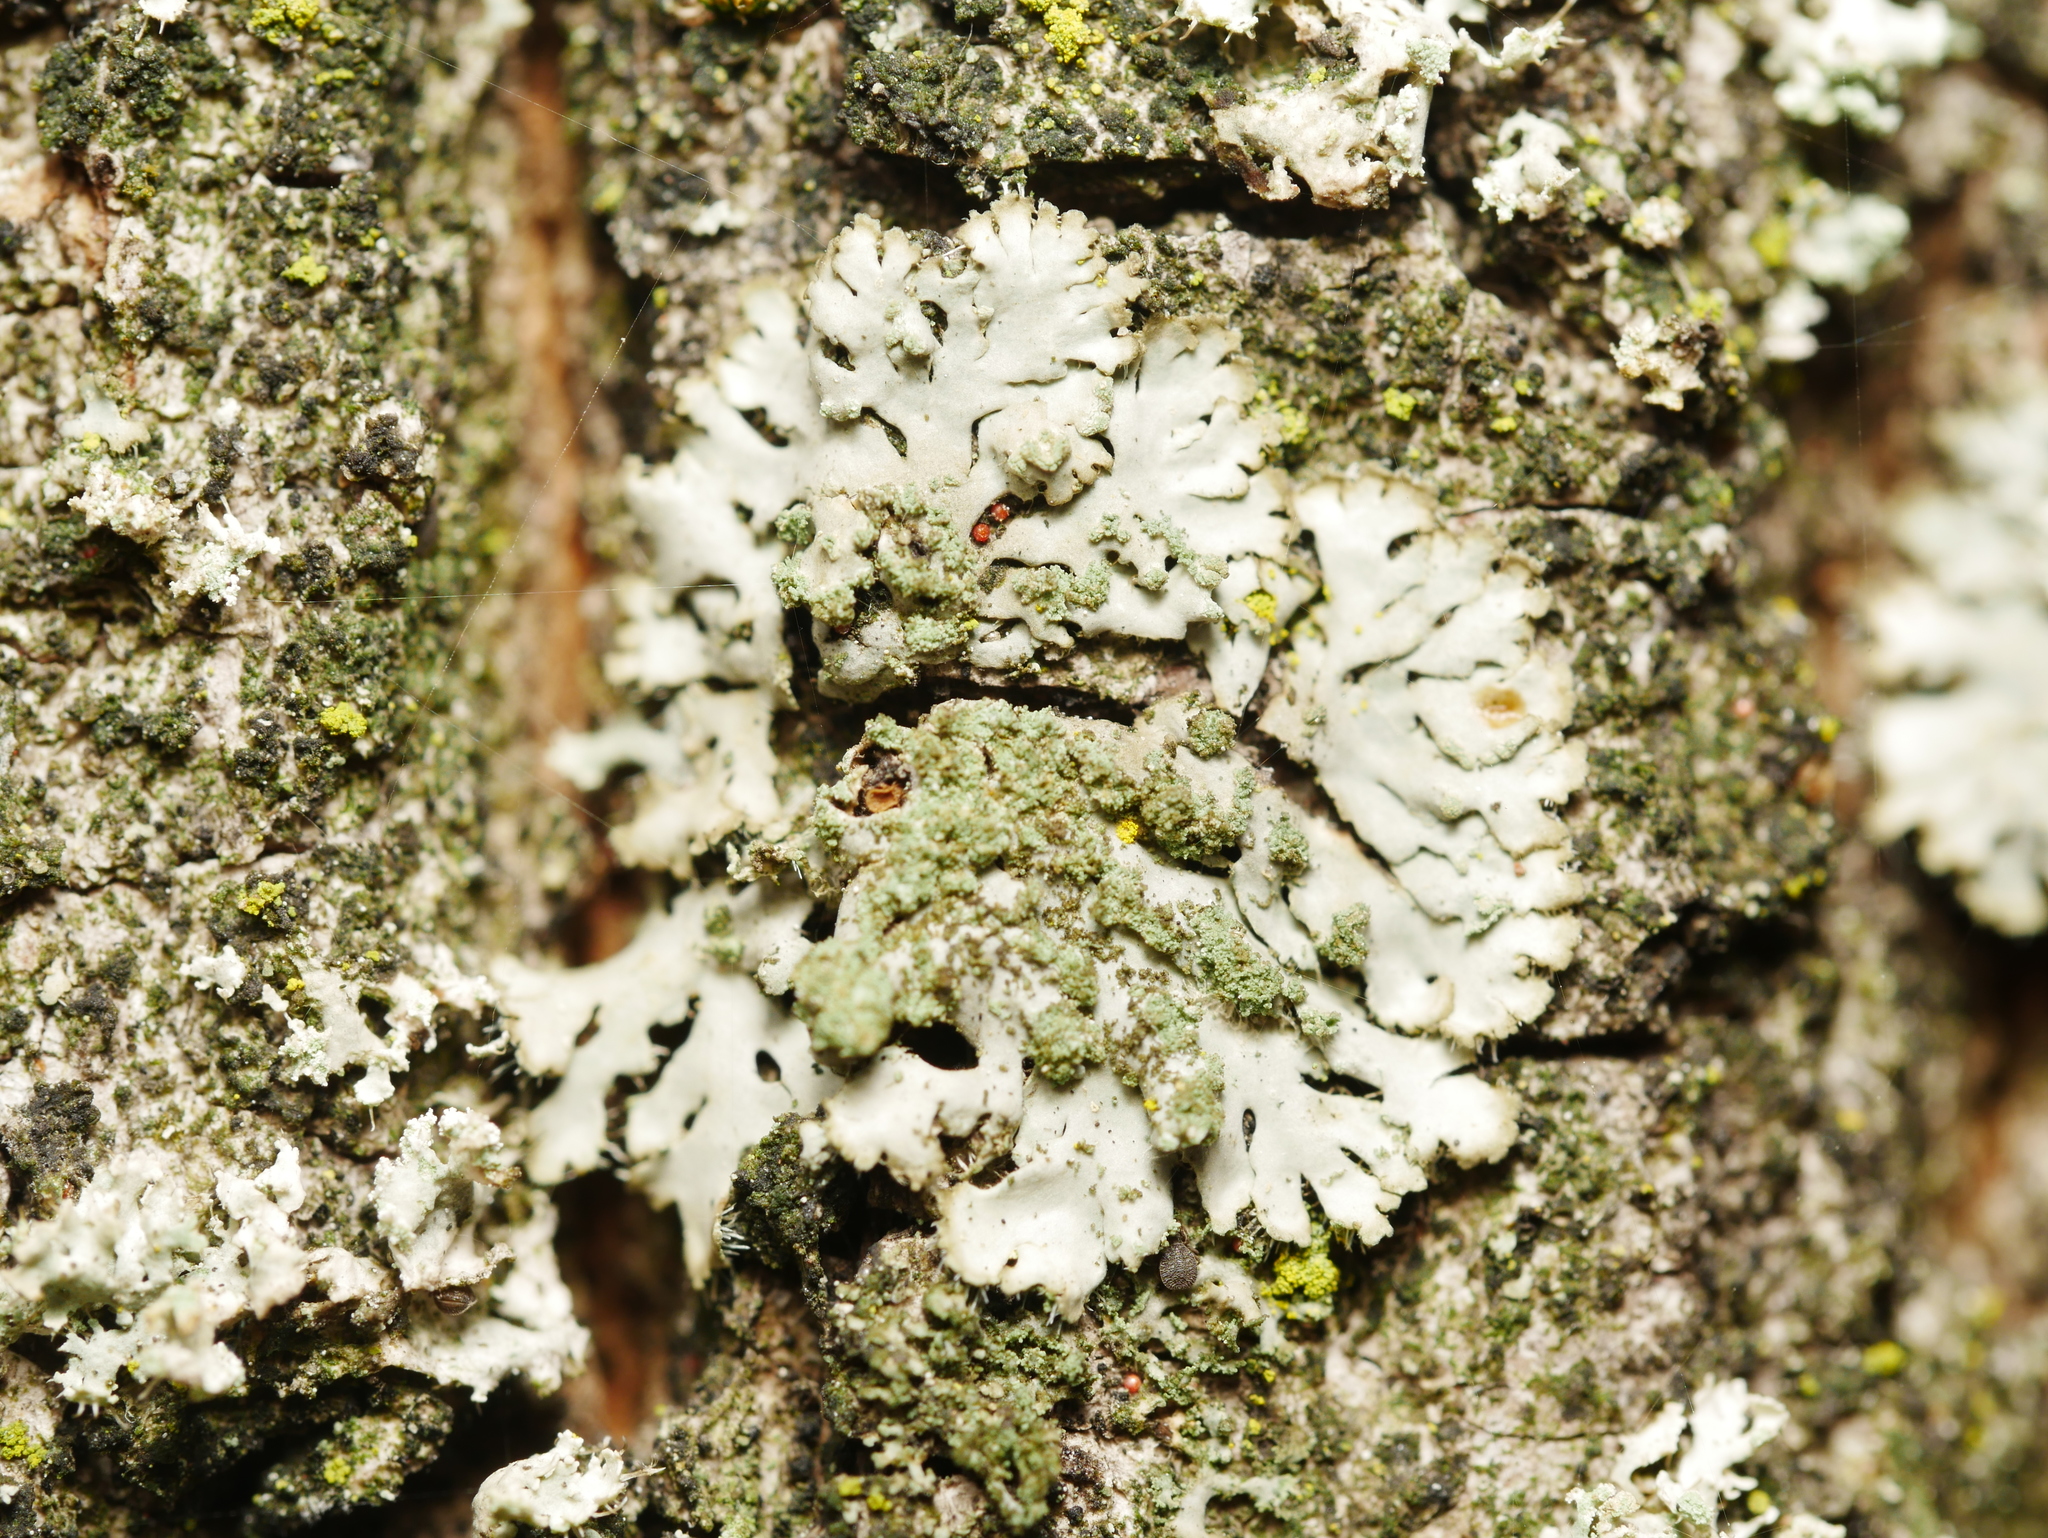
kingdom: Fungi
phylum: Ascomycota
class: Lecanoromycetes
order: Caliciales
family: Physciaceae
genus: Phaeophyscia
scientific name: Phaeophyscia orbicularis
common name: Mealy shadow lichen
